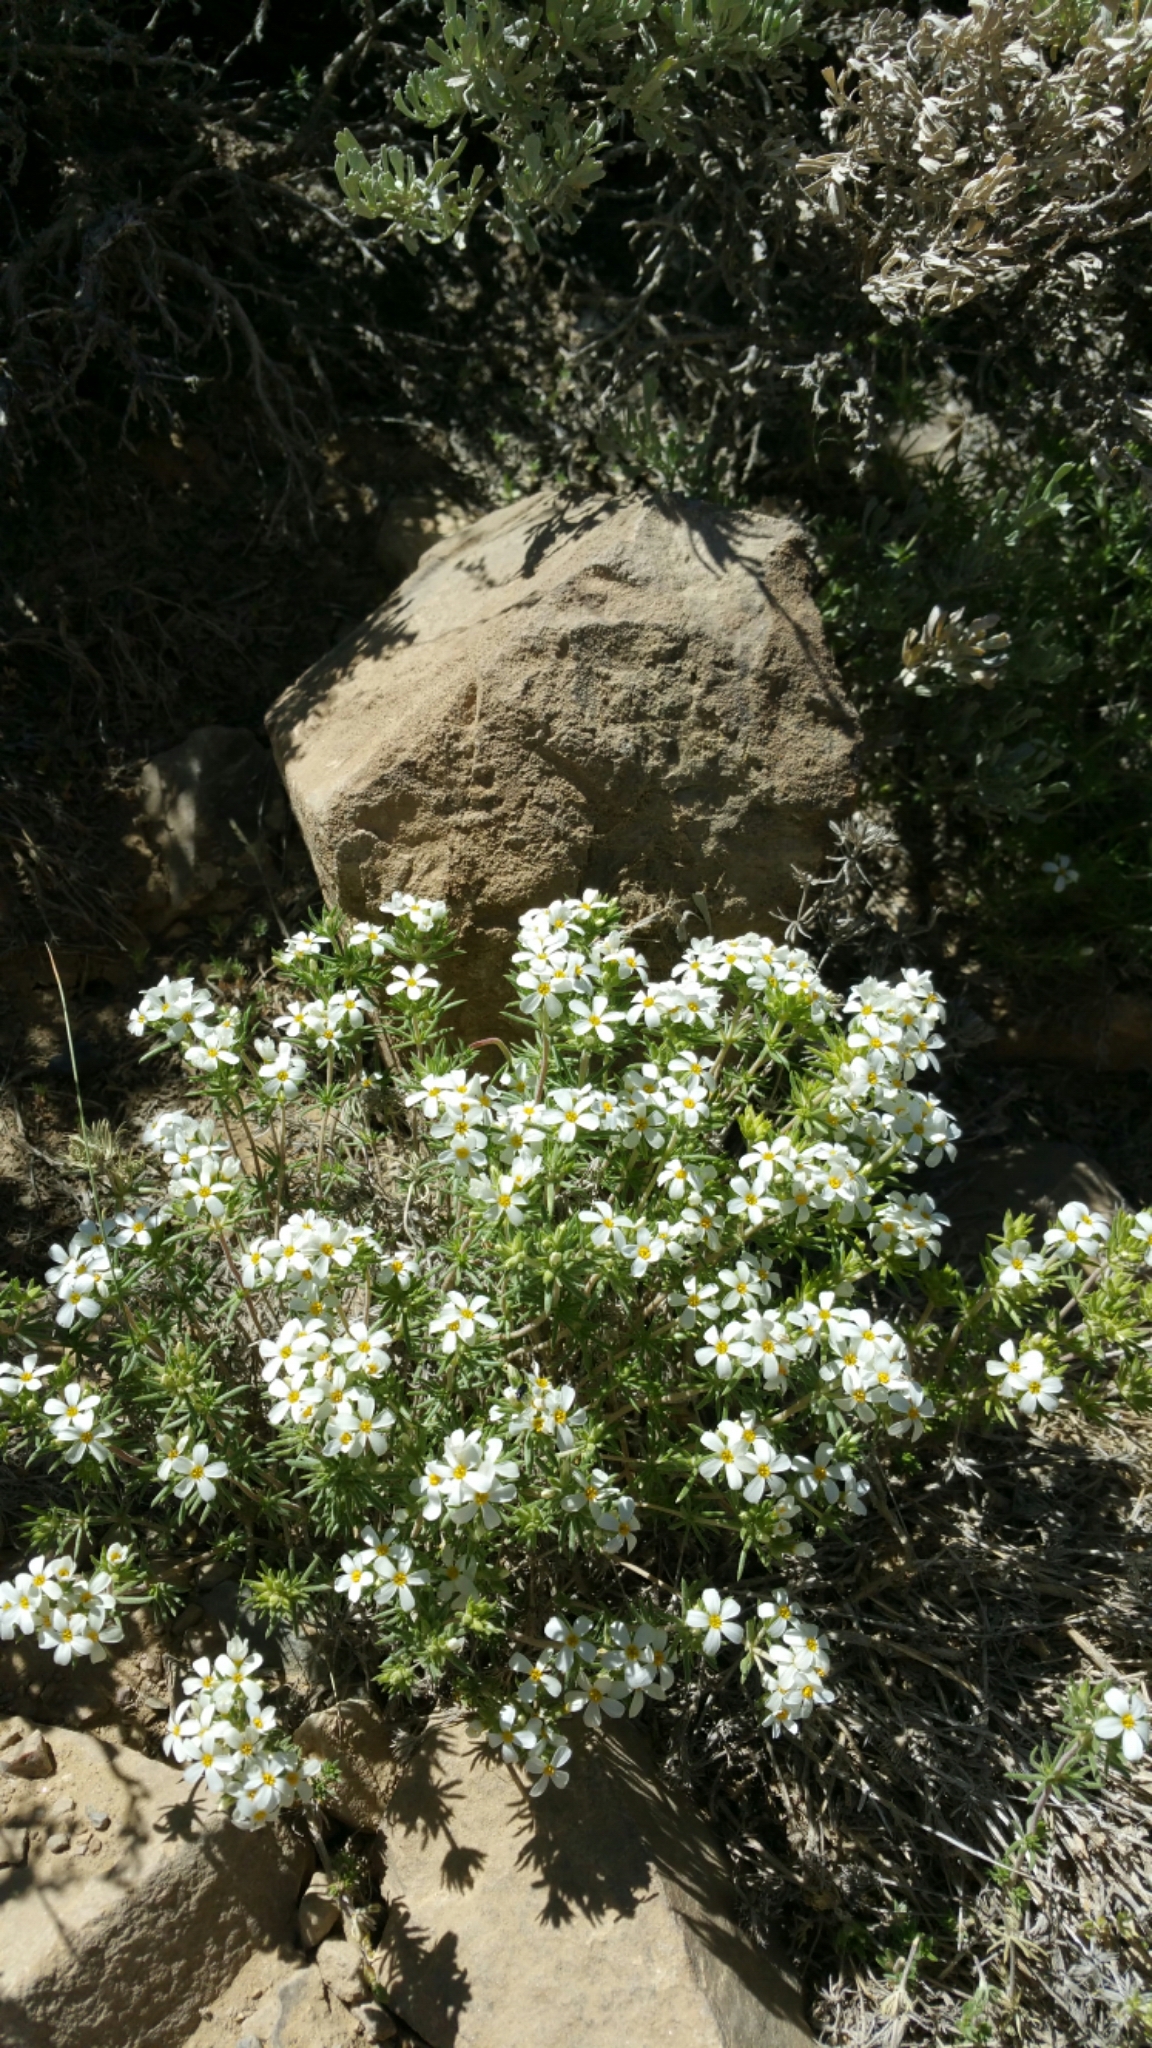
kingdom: Plantae
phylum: Tracheophyta
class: Magnoliopsida
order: Ericales
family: Polemoniaceae
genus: Leptosiphon
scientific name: Leptosiphon nuttallii
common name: Nuttall's linanthus
